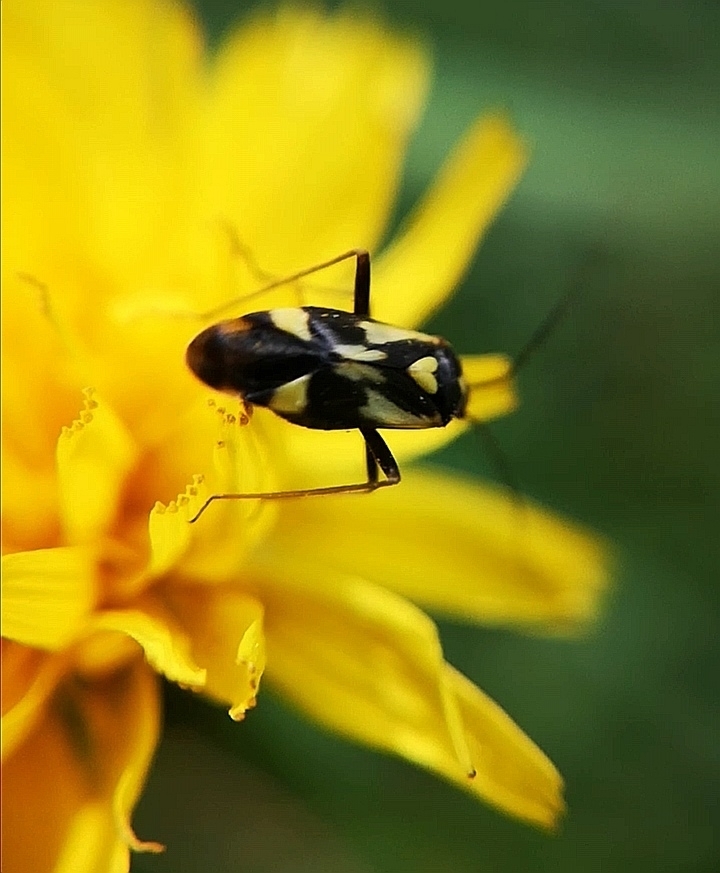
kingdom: Animalia
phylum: Arthropoda
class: Insecta
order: Hemiptera
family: Miridae
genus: Grypocoris
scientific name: Grypocoris sexguttatus
